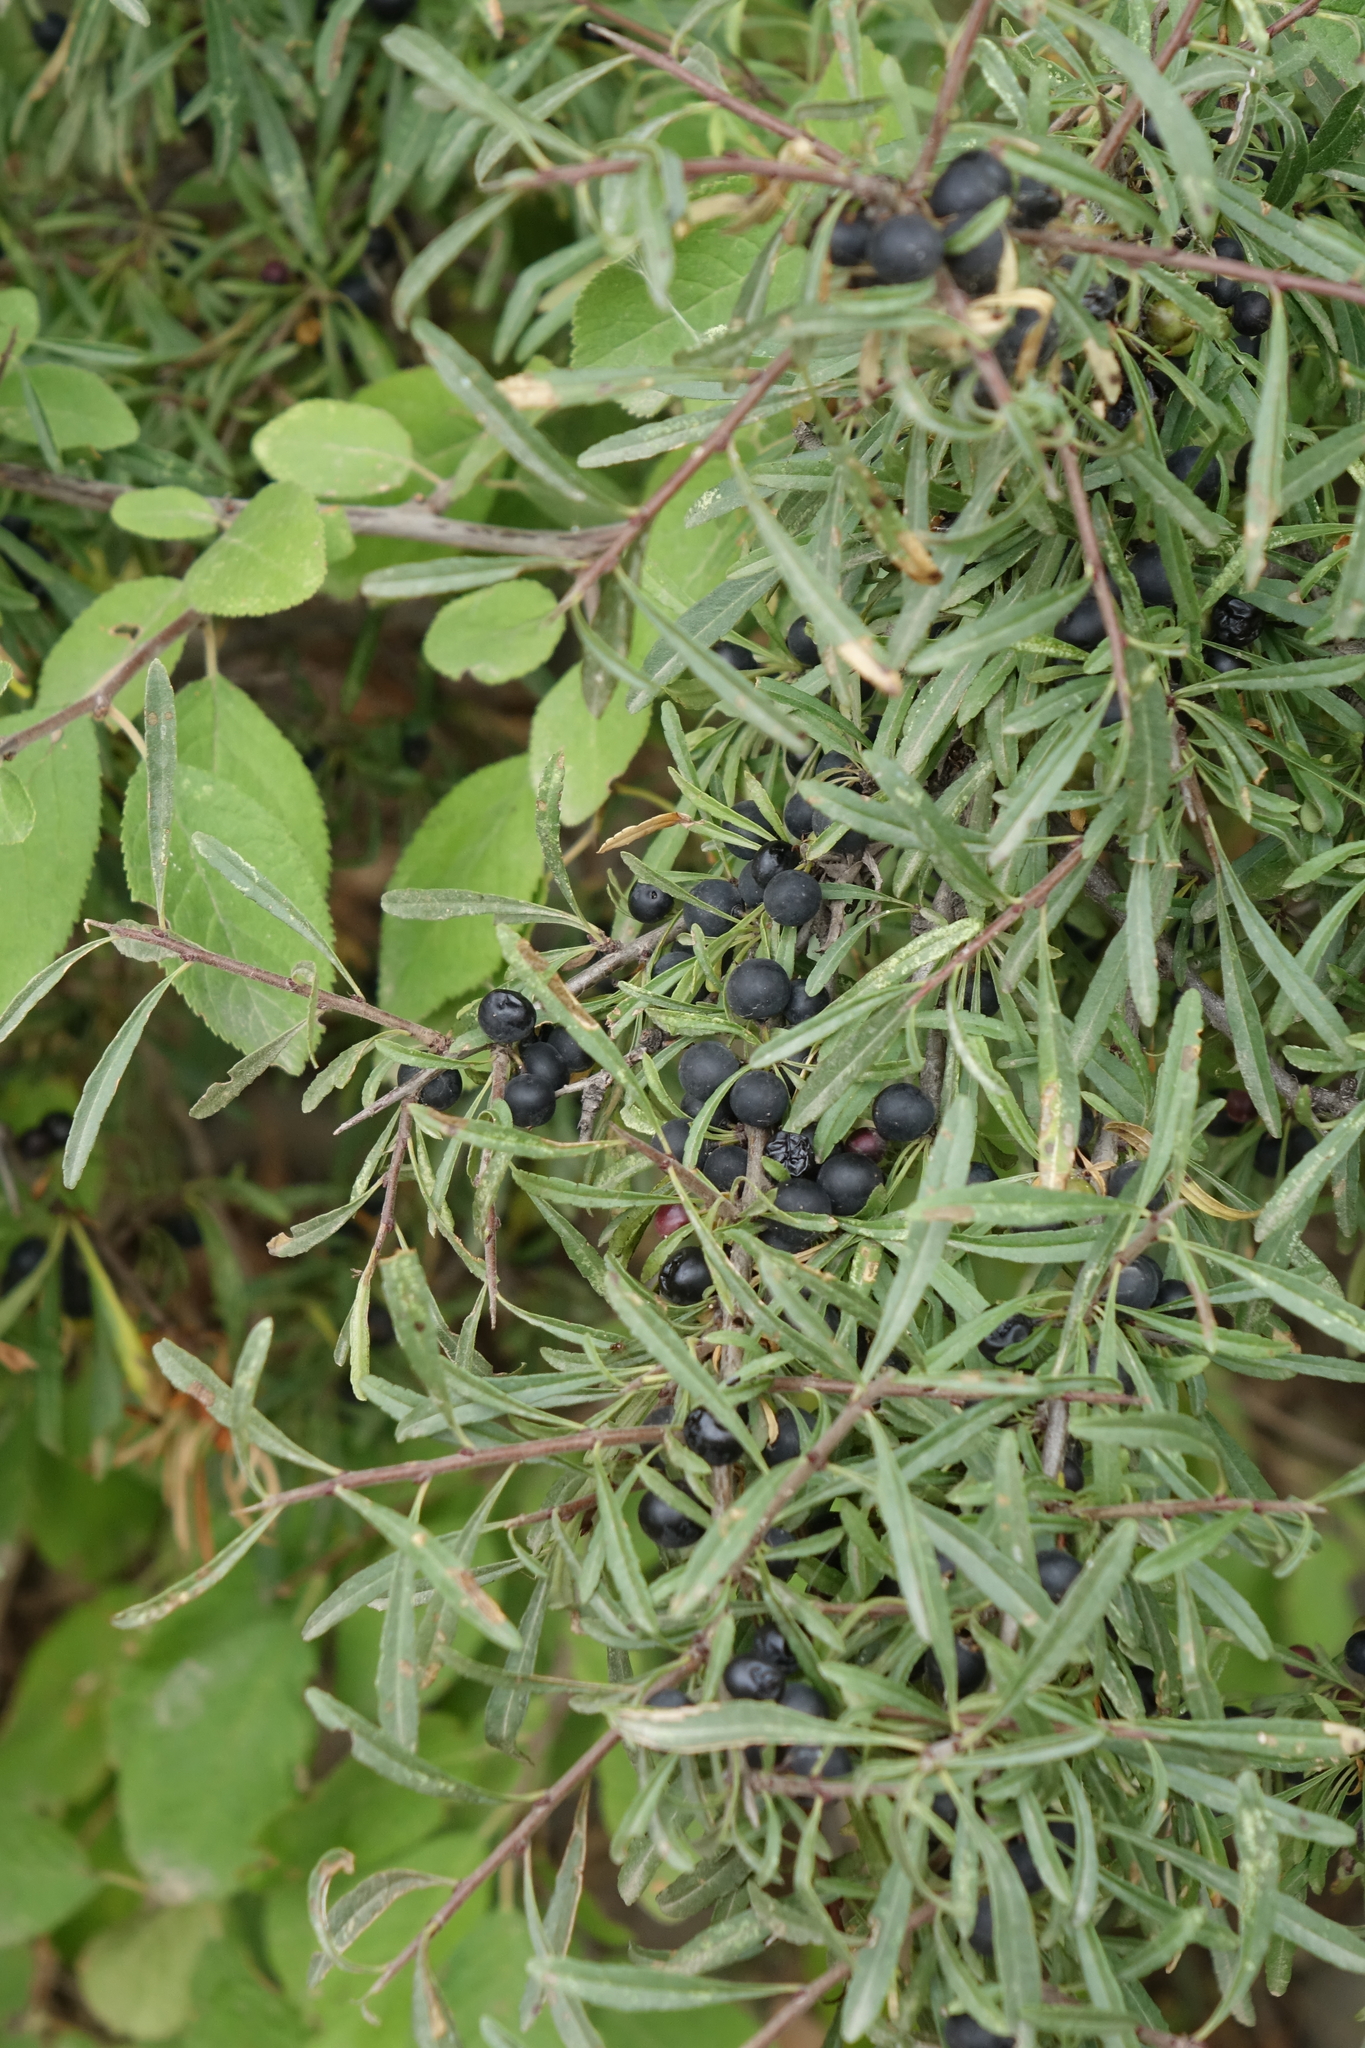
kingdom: Plantae
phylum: Tracheophyta
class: Magnoliopsida
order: Rosales
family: Rhamnaceae
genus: Rhamnus
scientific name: Rhamnus erythroxyloides
